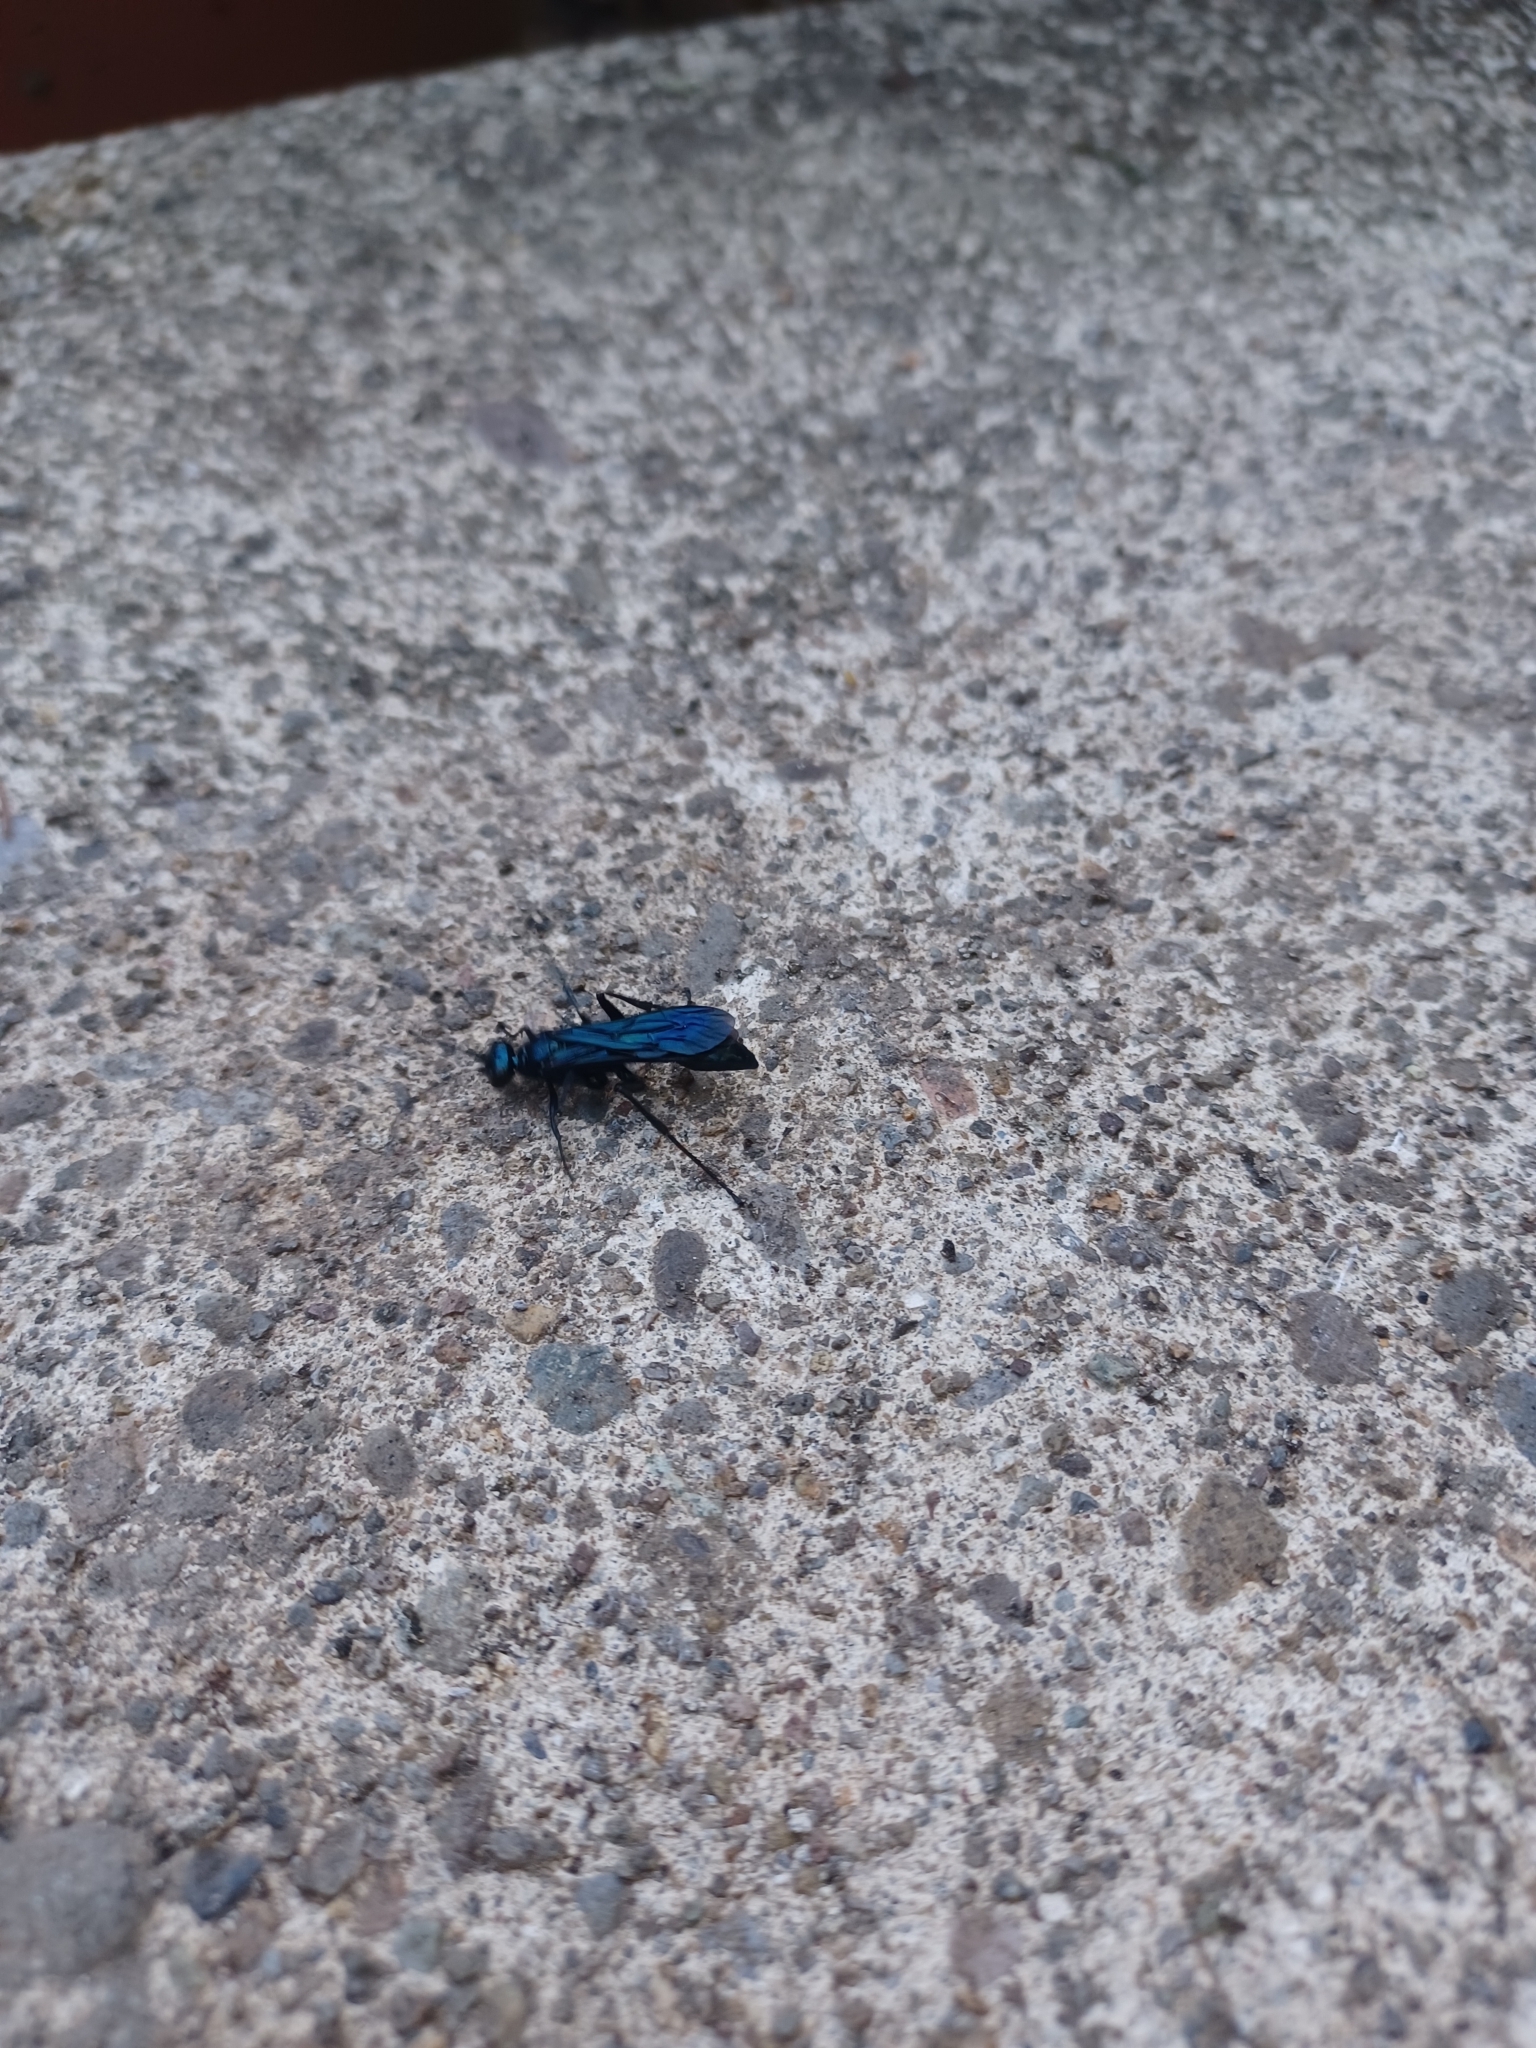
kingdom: Animalia
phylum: Arthropoda
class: Insecta
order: Hymenoptera
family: Sphecidae
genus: Chalybion
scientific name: Chalybion californicum
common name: Mud dauber
